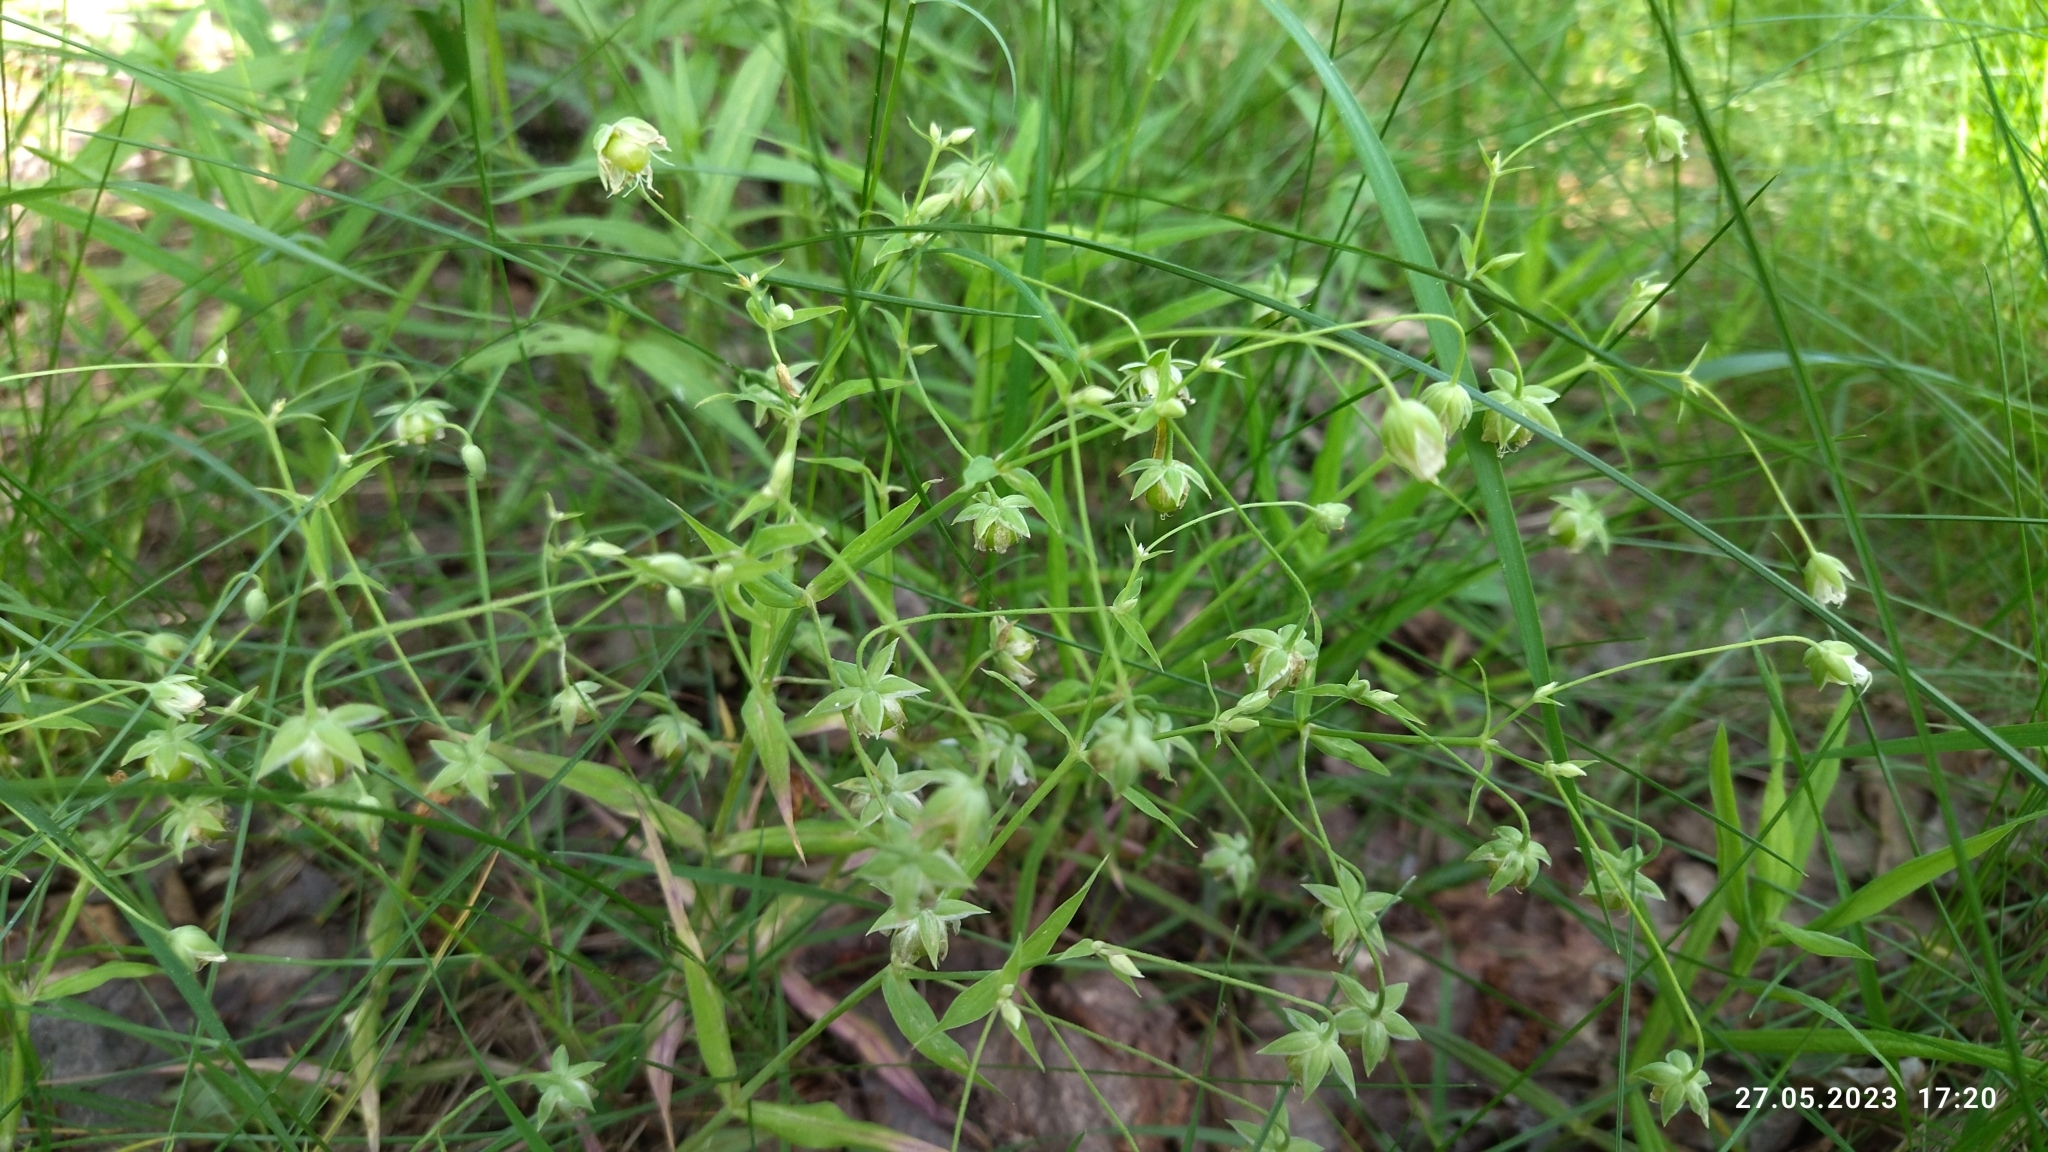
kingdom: Plantae
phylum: Tracheophyta
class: Magnoliopsida
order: Caryophyllales
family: Caryophyllaceae
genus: Rabelera
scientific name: Rabelera holostea
